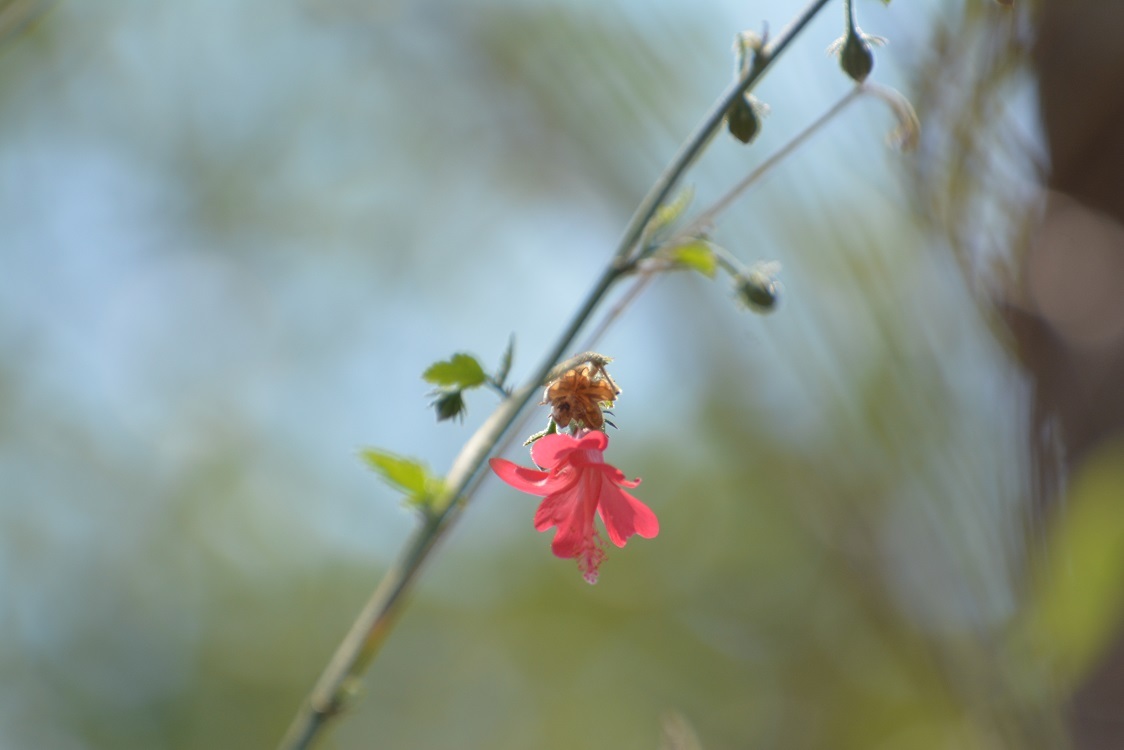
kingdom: Plantae
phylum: Tracheophyta
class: Magnoliopsida
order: Malvales
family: Malvaceae
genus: Hibiscus
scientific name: Hibiscus poeppigii
